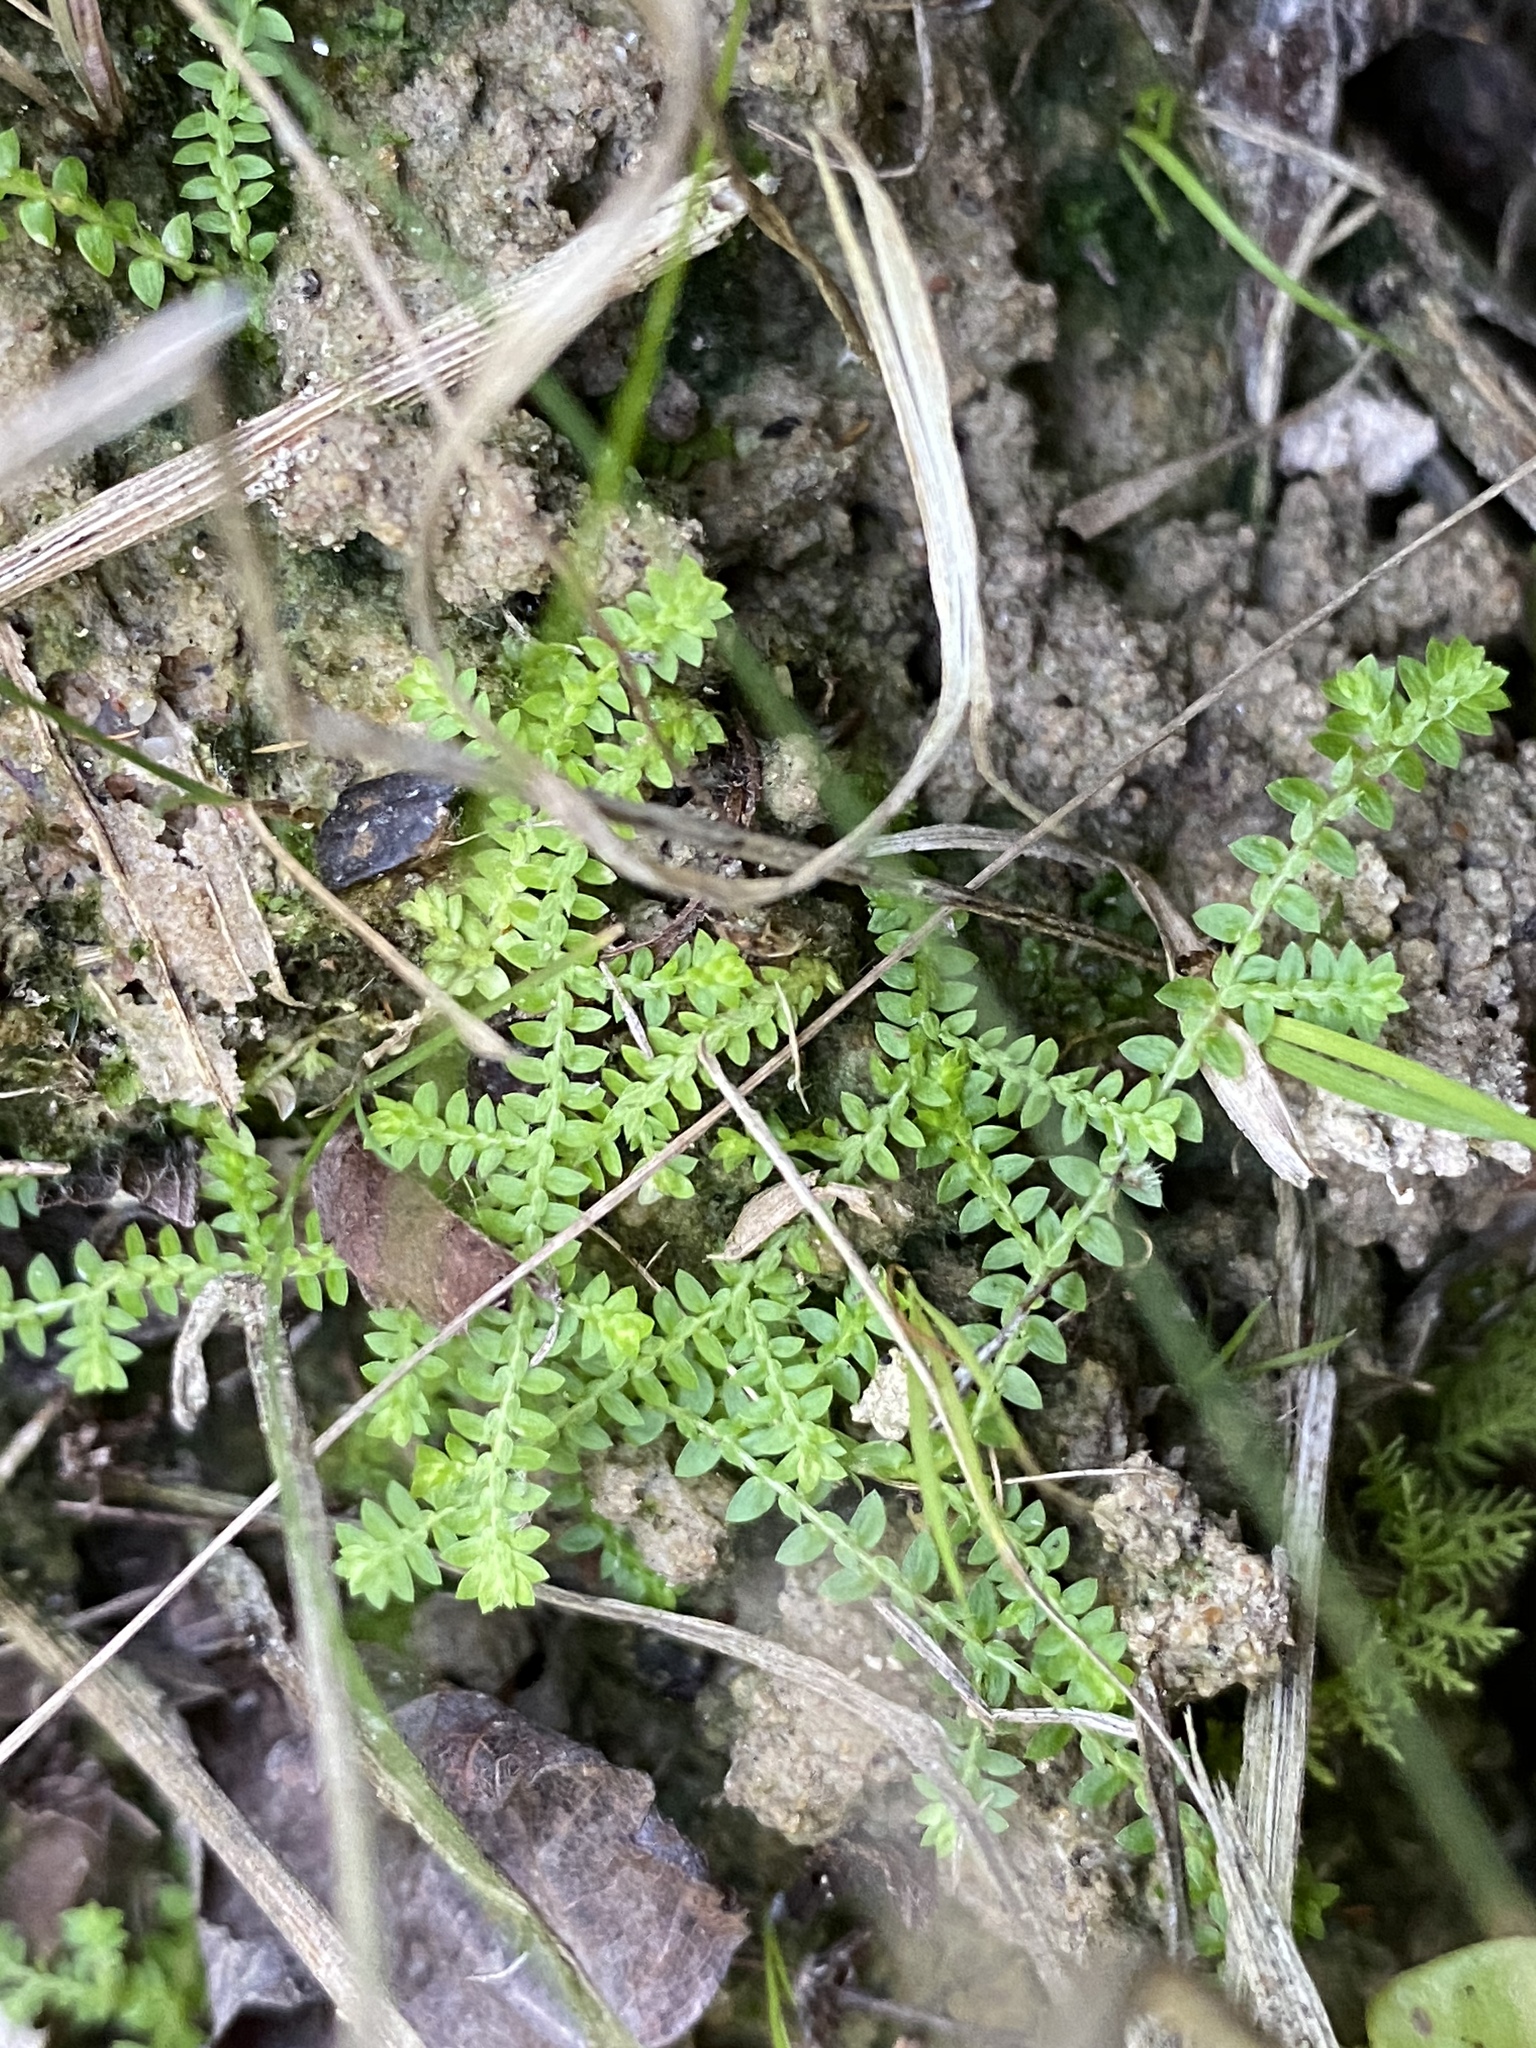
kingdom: Plantae
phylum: Tracheophyta
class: Lycopodiopsida
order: Selaginellales
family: Selaginellaceae
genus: Selaginella
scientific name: Selaginella apoda
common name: Creeping spikemoss
